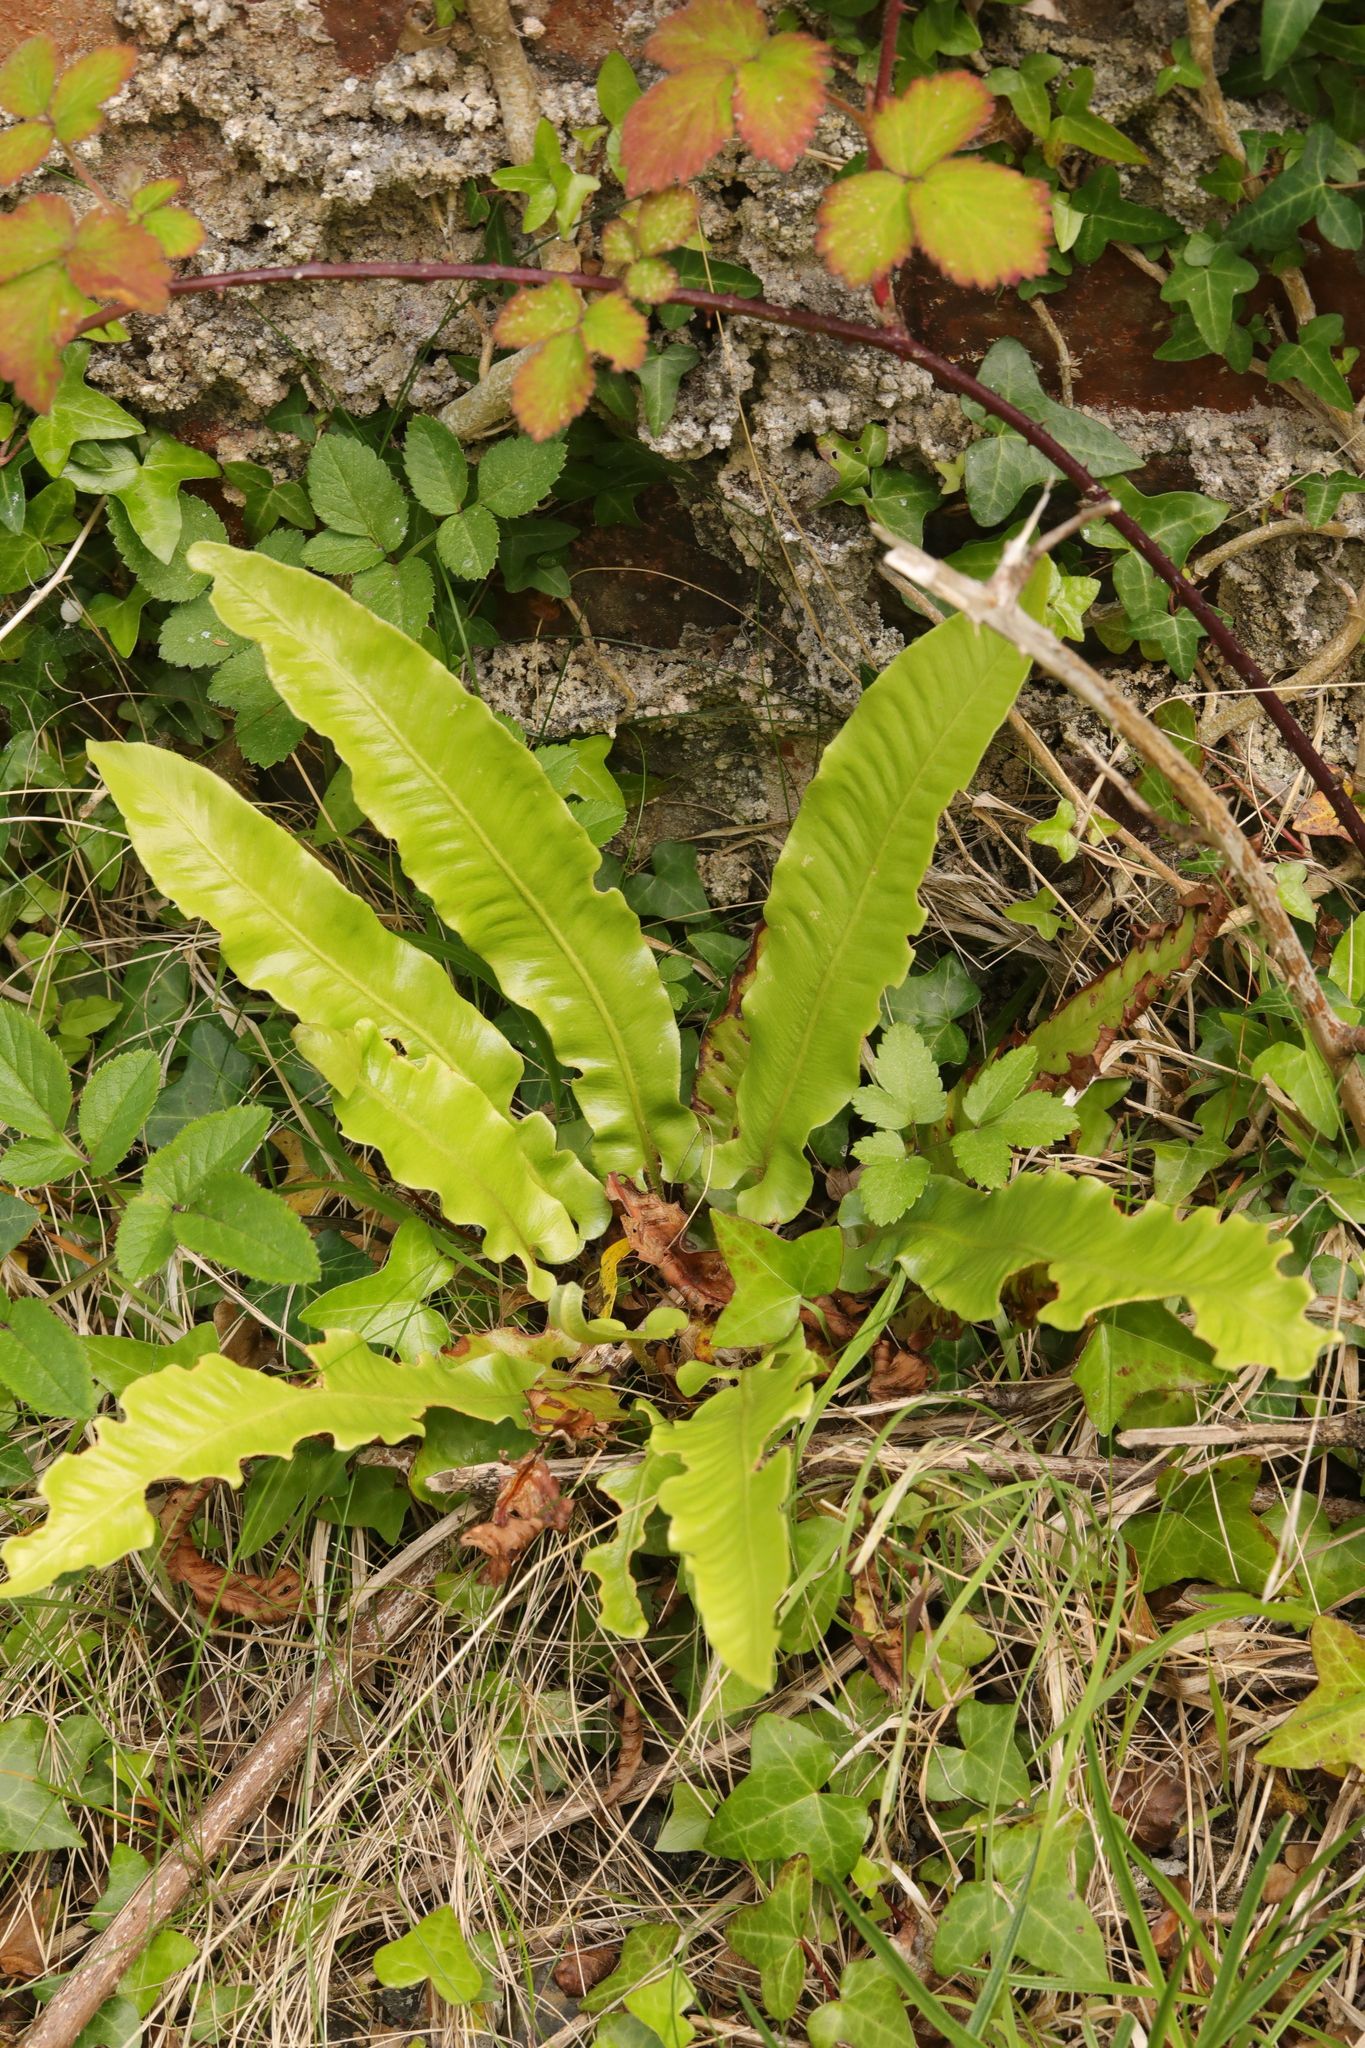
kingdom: Plantae
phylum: Tracheophyta
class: Polypodiopsida
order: Polypodiales
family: Aspleniaceae
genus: Asplenium
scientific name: Asplenium scolopendrium
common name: Hart's-tongue fern
